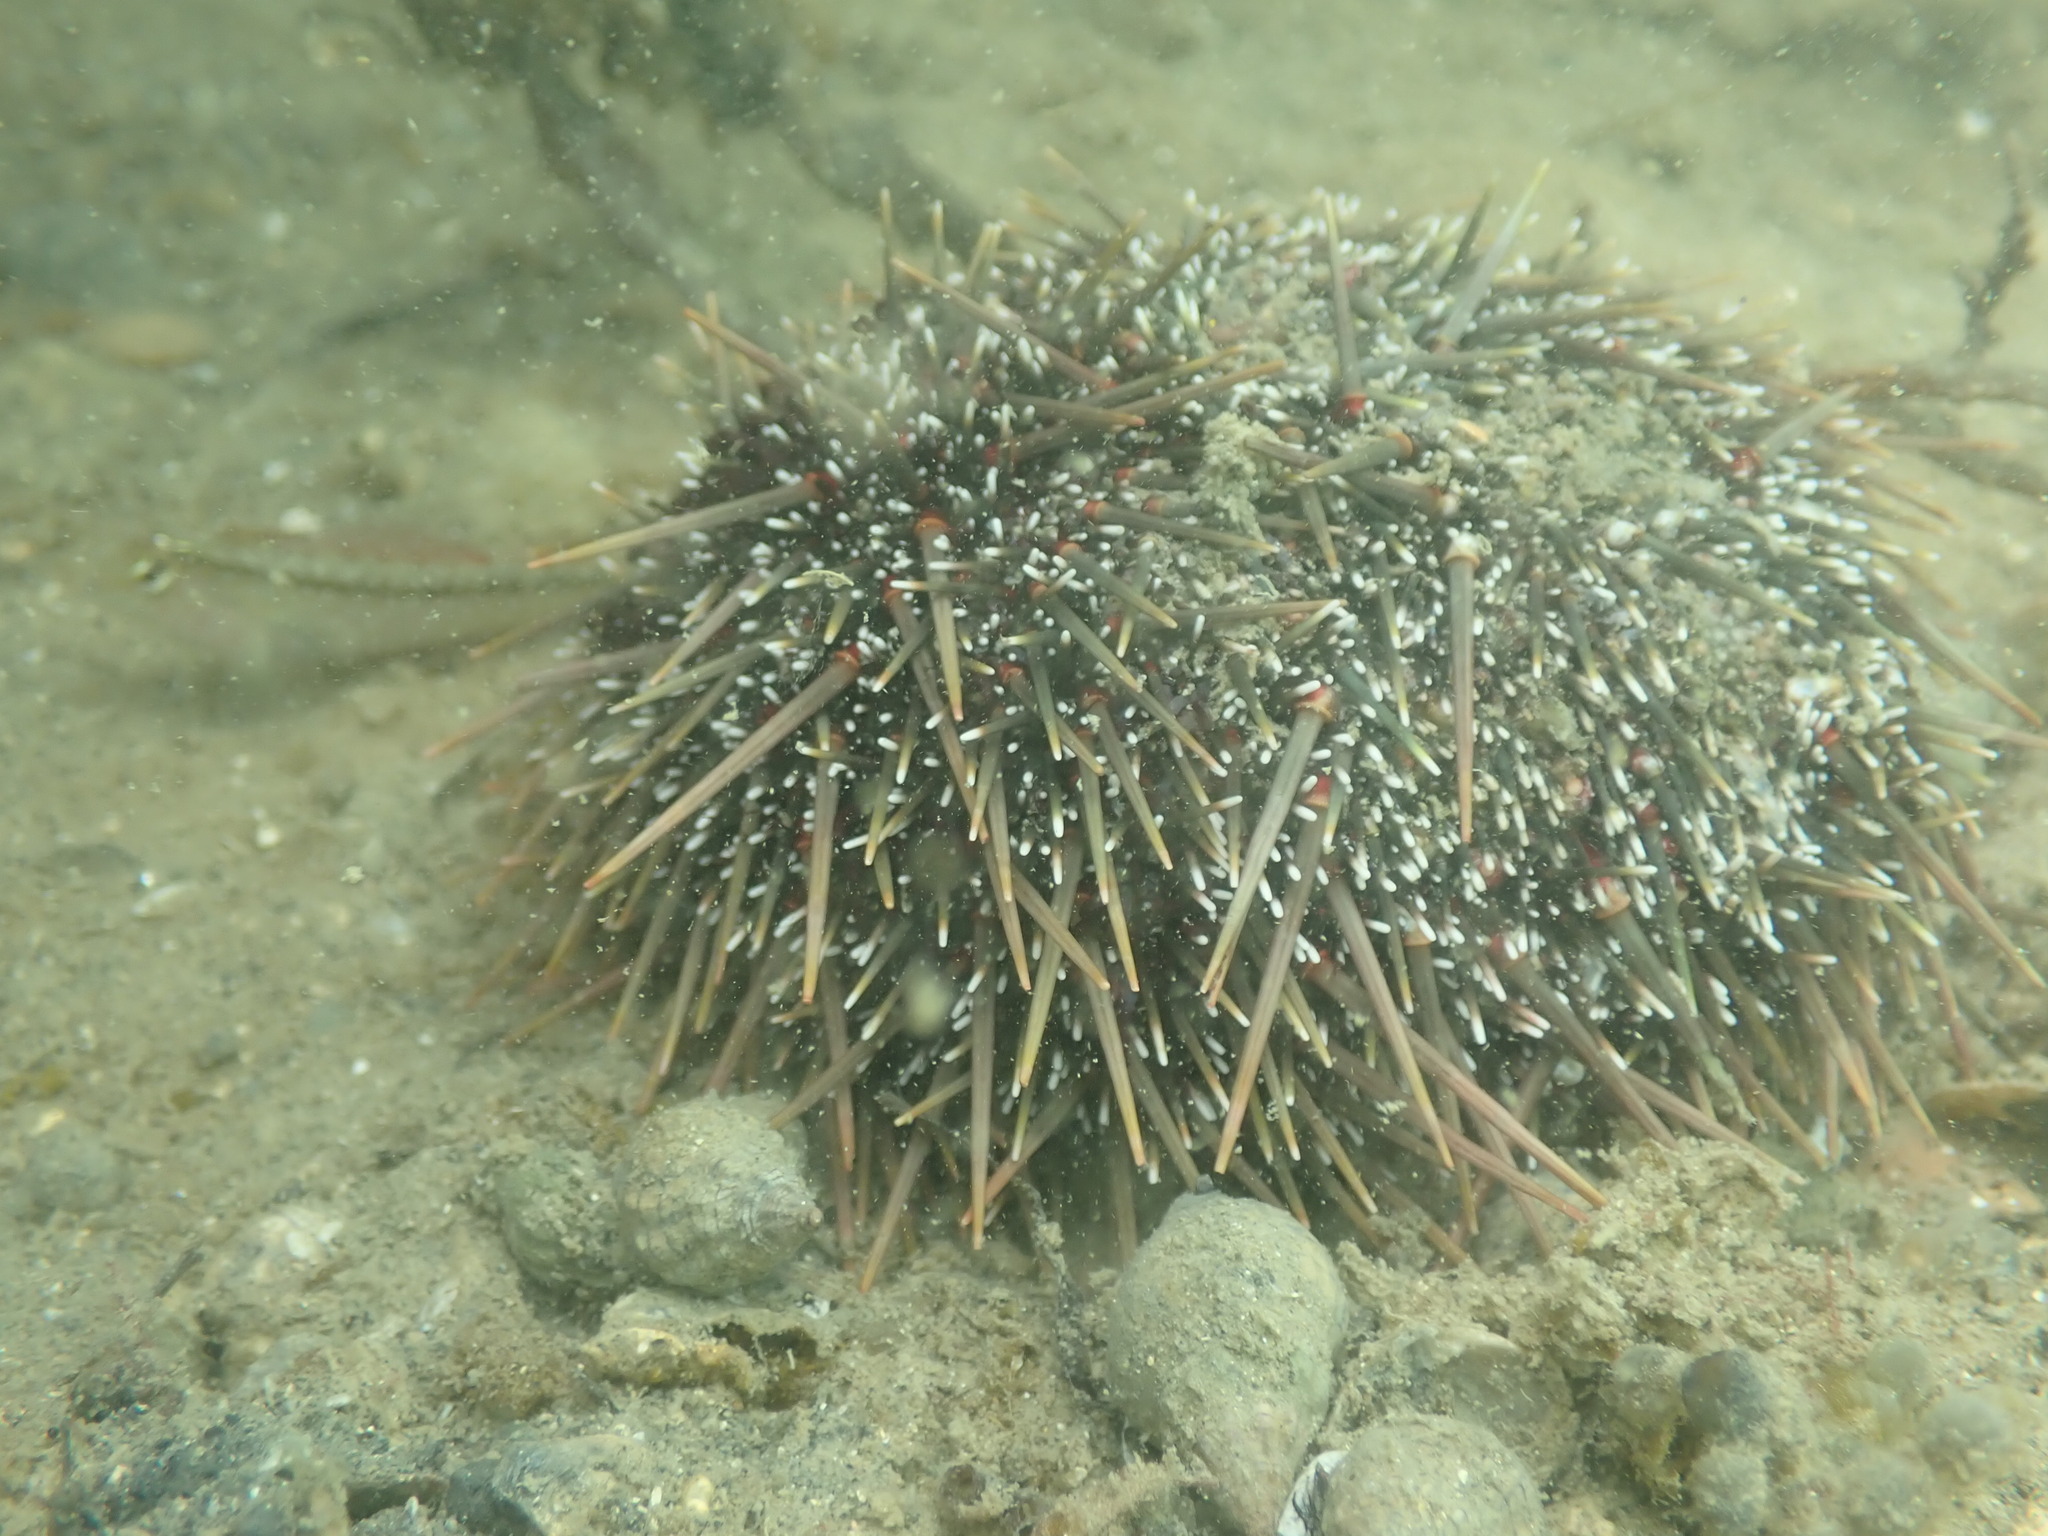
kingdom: Animalia
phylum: Mollusca
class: Gastropoda
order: Neogastropoda
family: Cominellidae
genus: Cominella
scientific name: Cominella virgata
